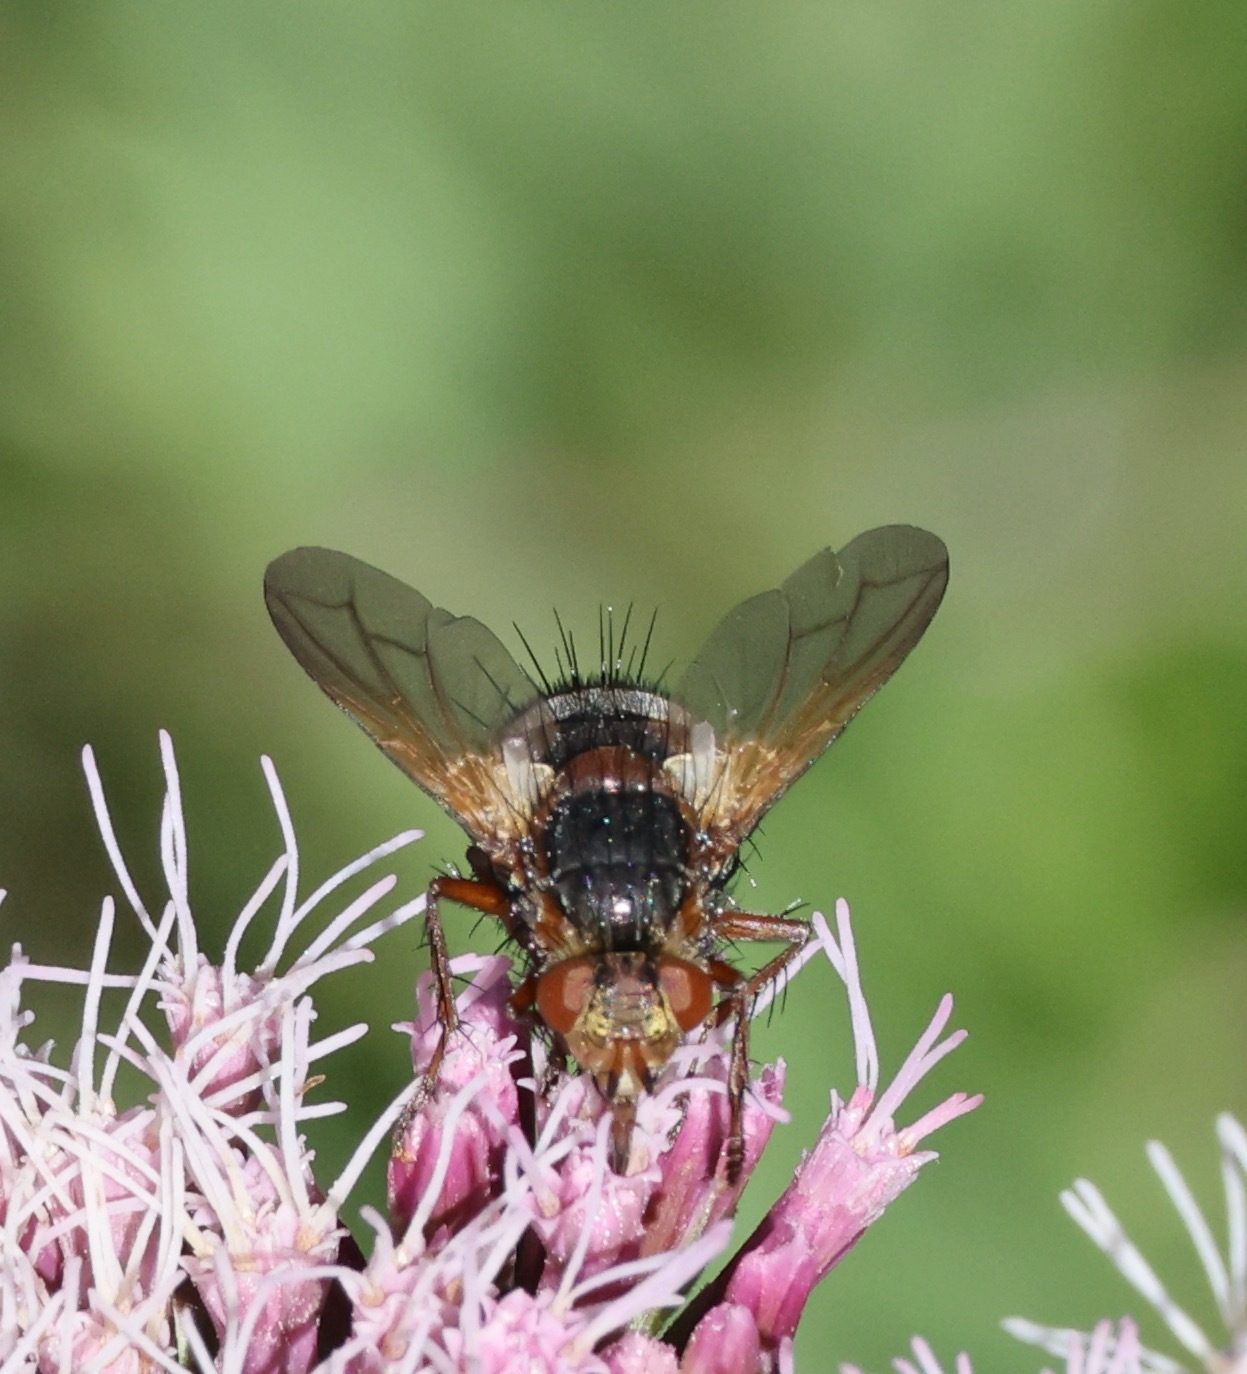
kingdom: Animalia
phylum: Arthropoda
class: Insecta
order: Diptera
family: Tachinidae
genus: Tachina
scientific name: Tachina fera
